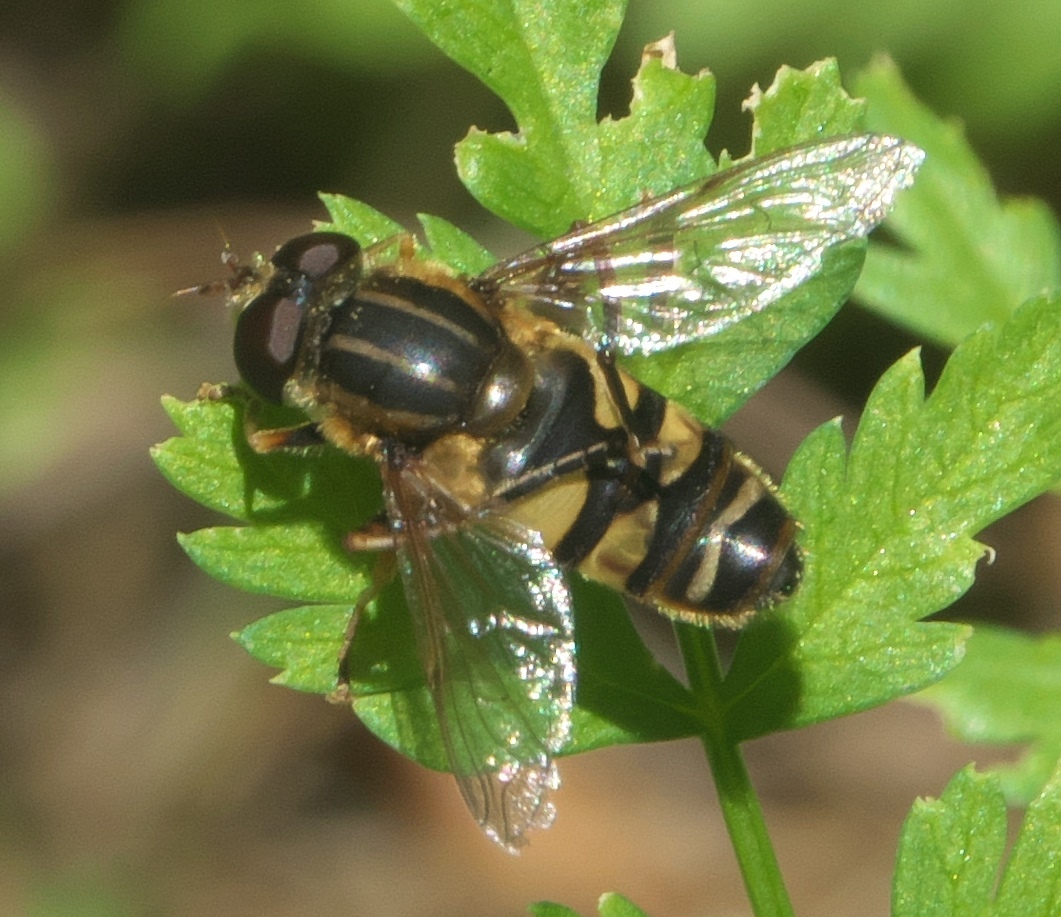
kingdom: Animalia
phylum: Arthropoda
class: Insecta
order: Diptera
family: Syrphidae
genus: Helophilus
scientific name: Helophilus fasciatus
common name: Narrow-headed marsh fly
